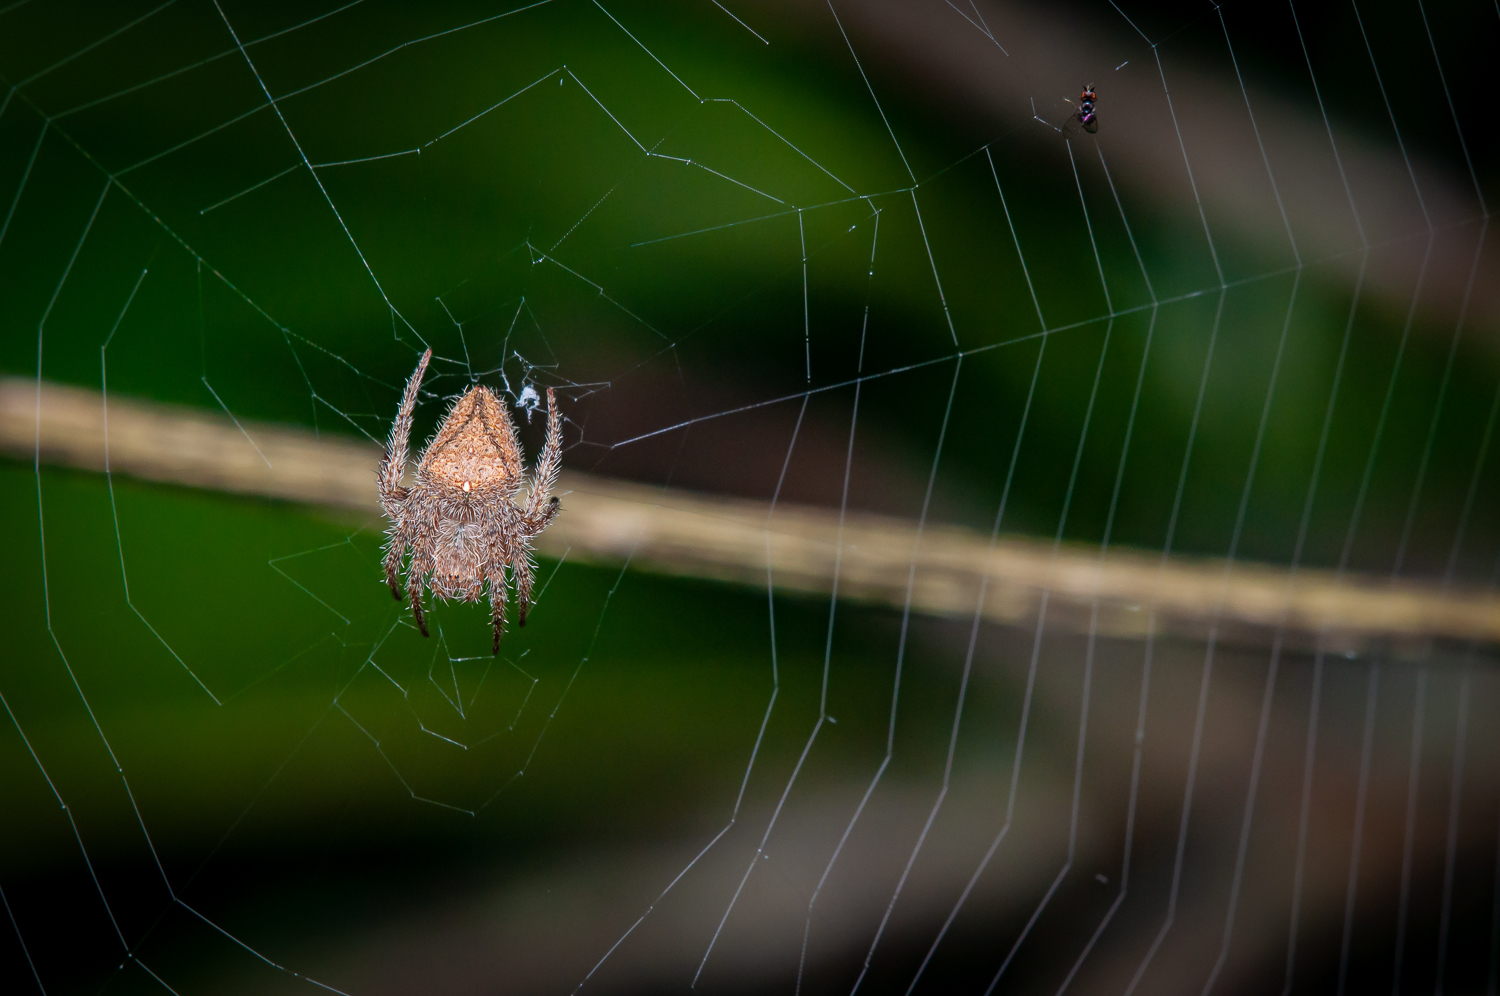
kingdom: Animalia
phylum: Arthropoda
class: Arachnida
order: Araneae
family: Araneidae
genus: Eriophora
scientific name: Eriophora edax
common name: Orb weavers
